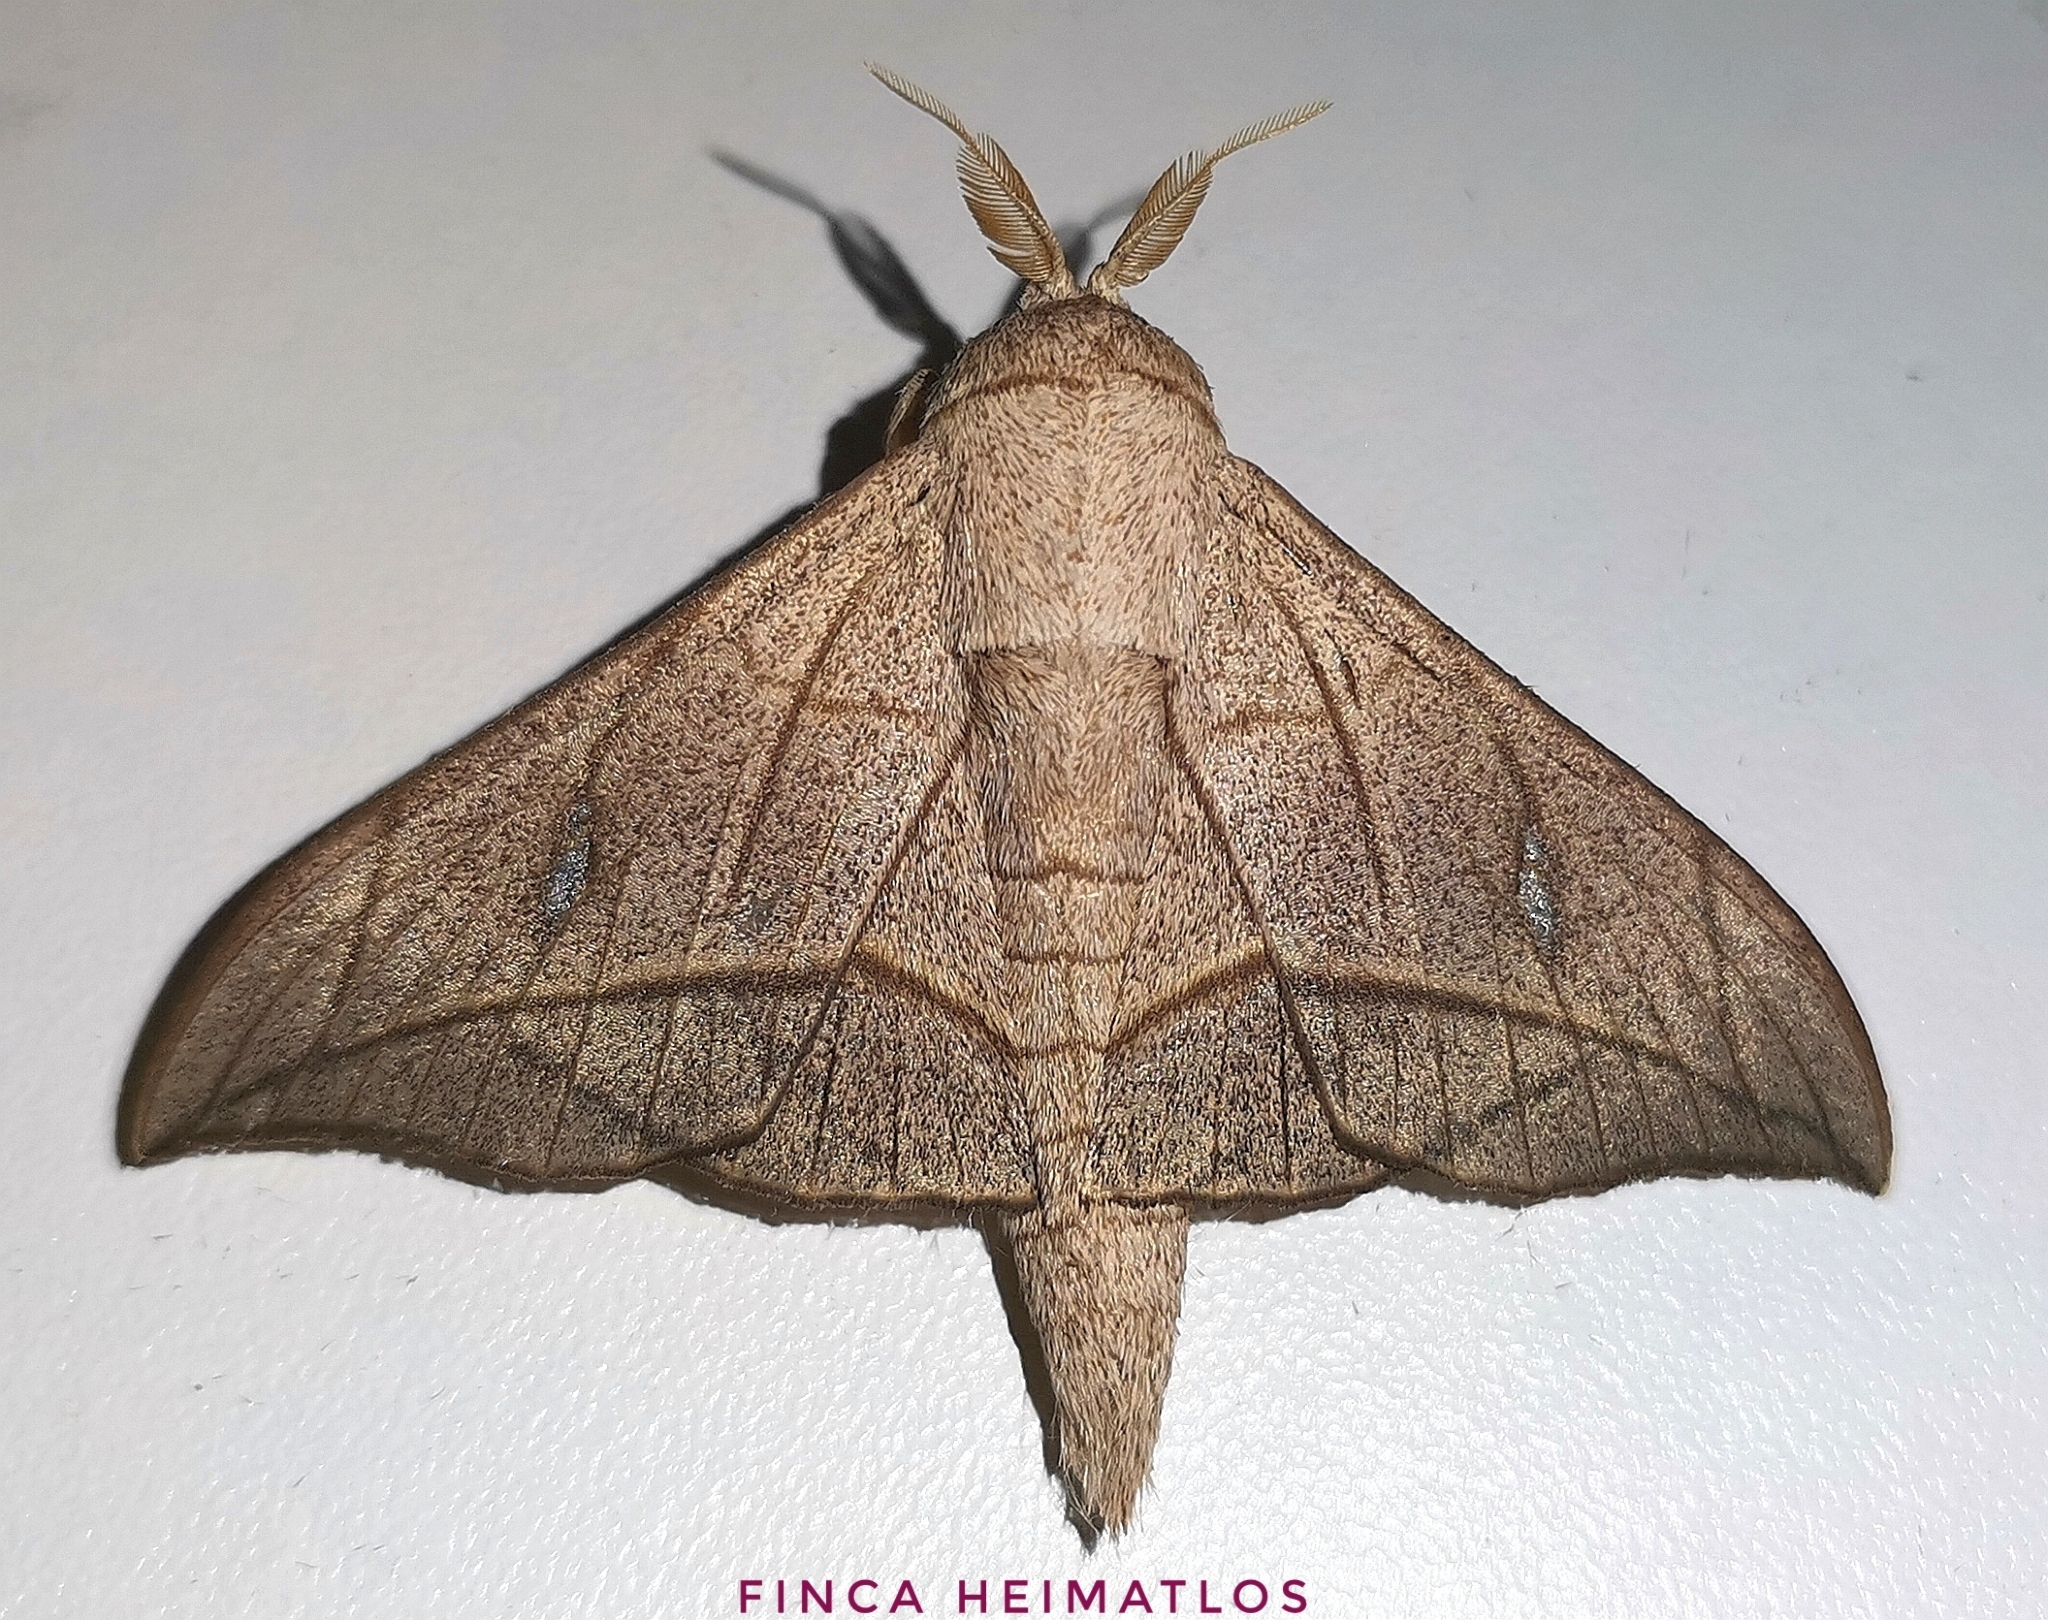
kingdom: Animalia
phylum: Arthropoda
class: Insecta
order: Lepidoptera
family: Mimallonidae
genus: Bedosia
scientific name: Bedosia fraterna
